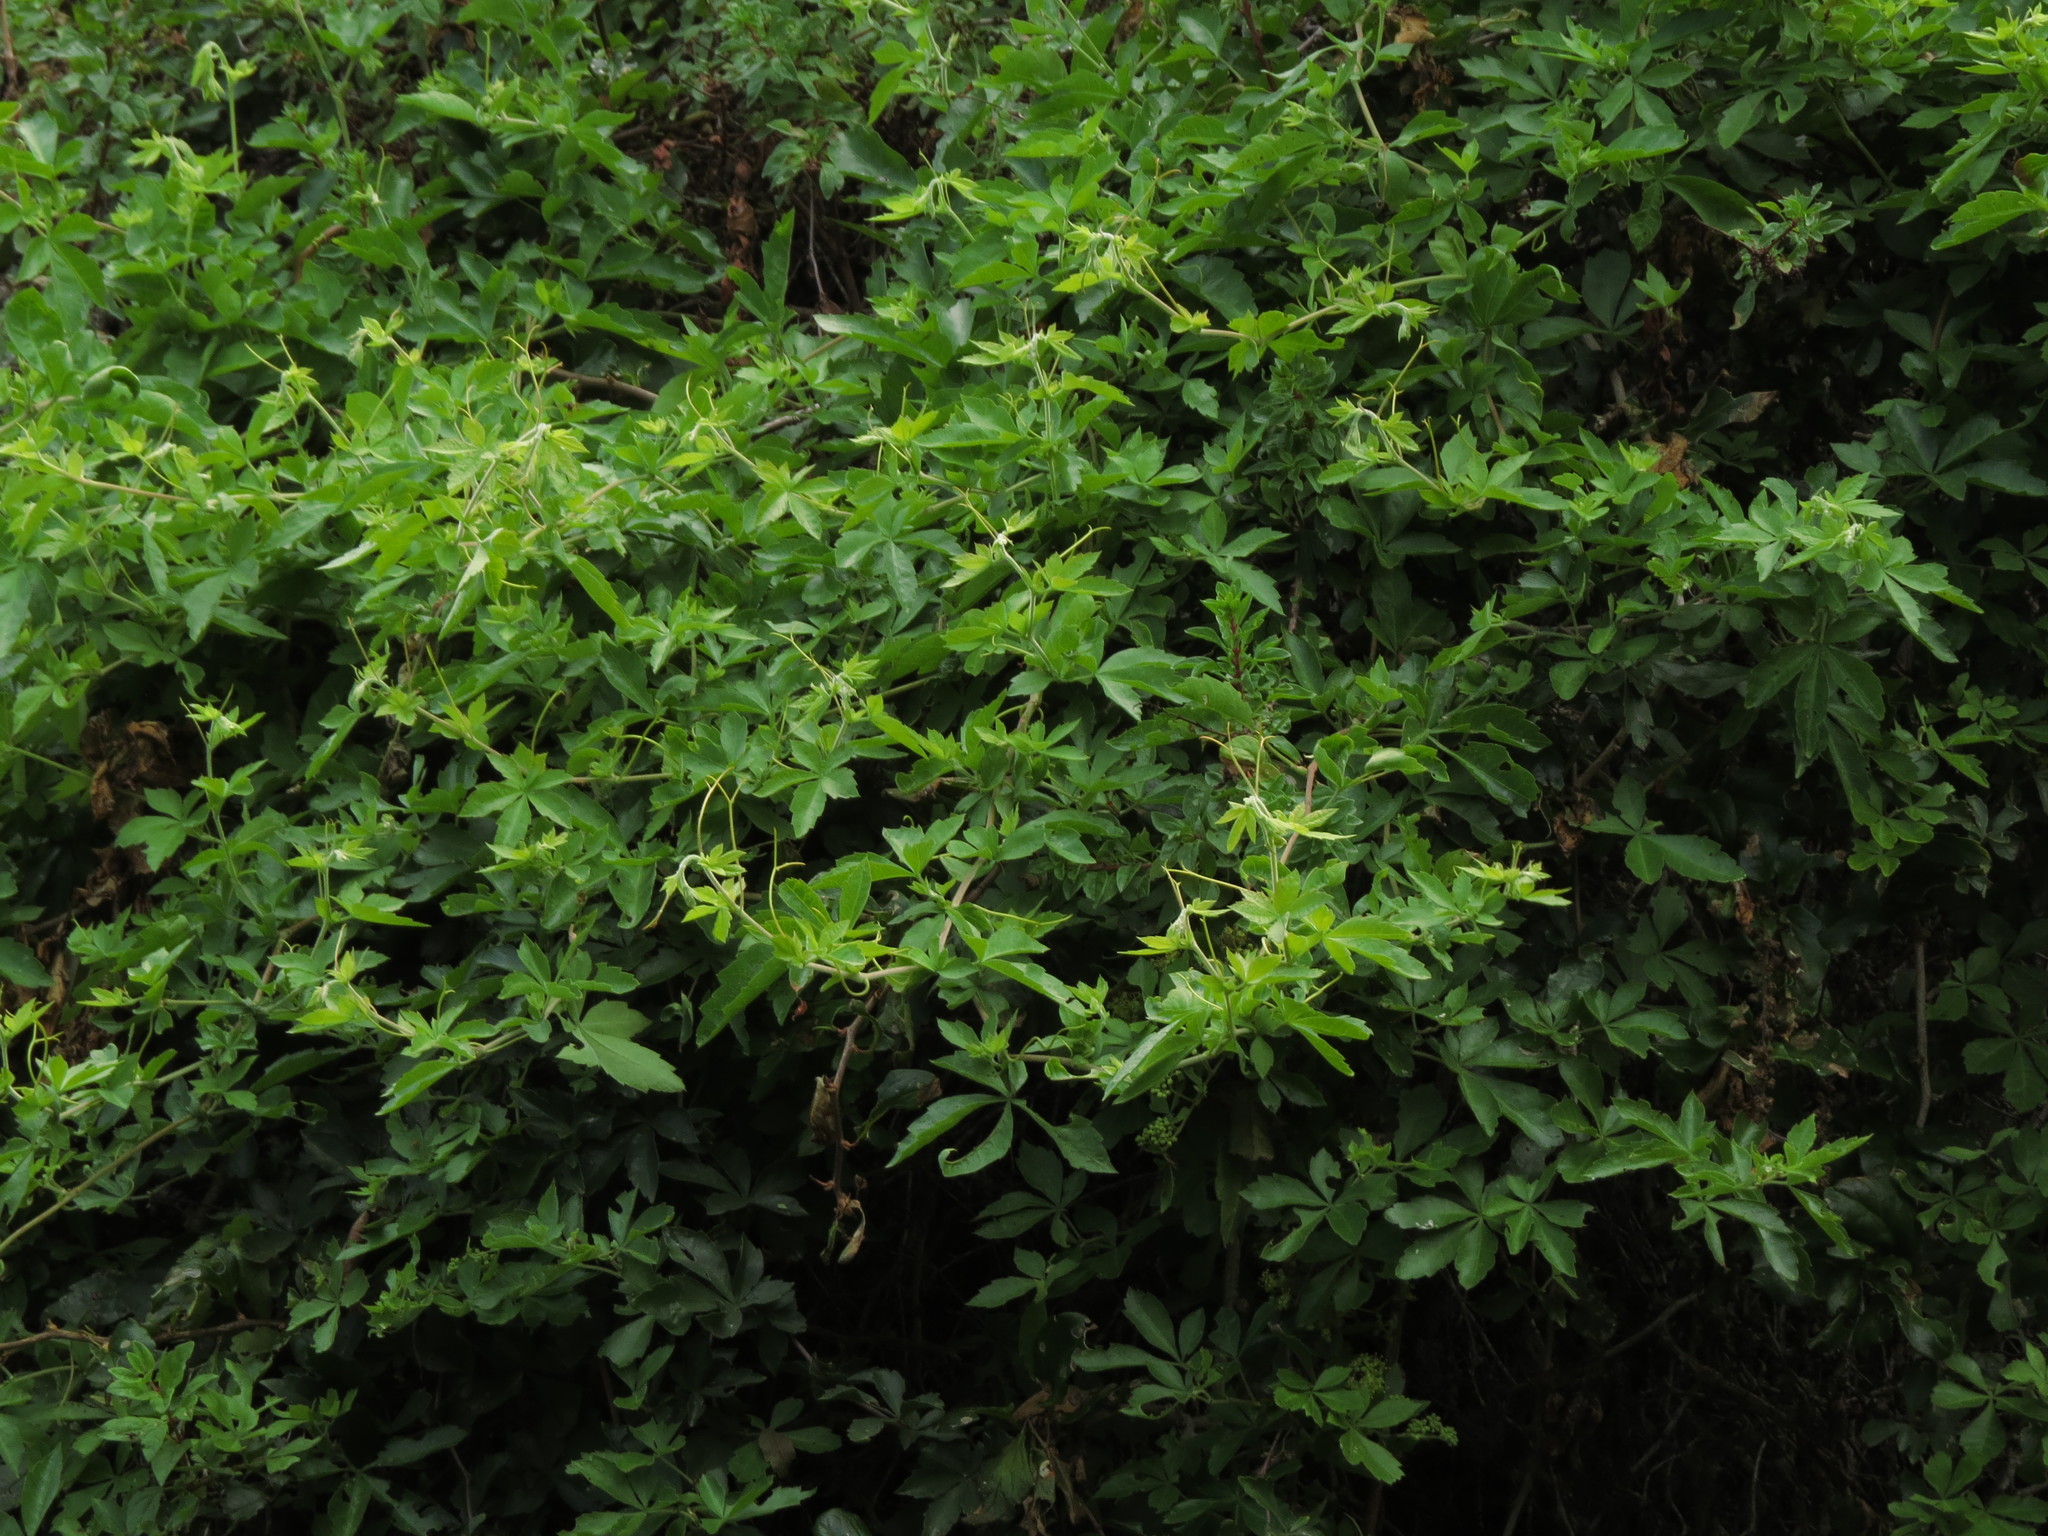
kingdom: Plantae
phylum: Tracheophyta
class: Magnoliopsida
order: Vitales
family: Vitaceae
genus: Clematicissus
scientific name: Clematicissus striata
